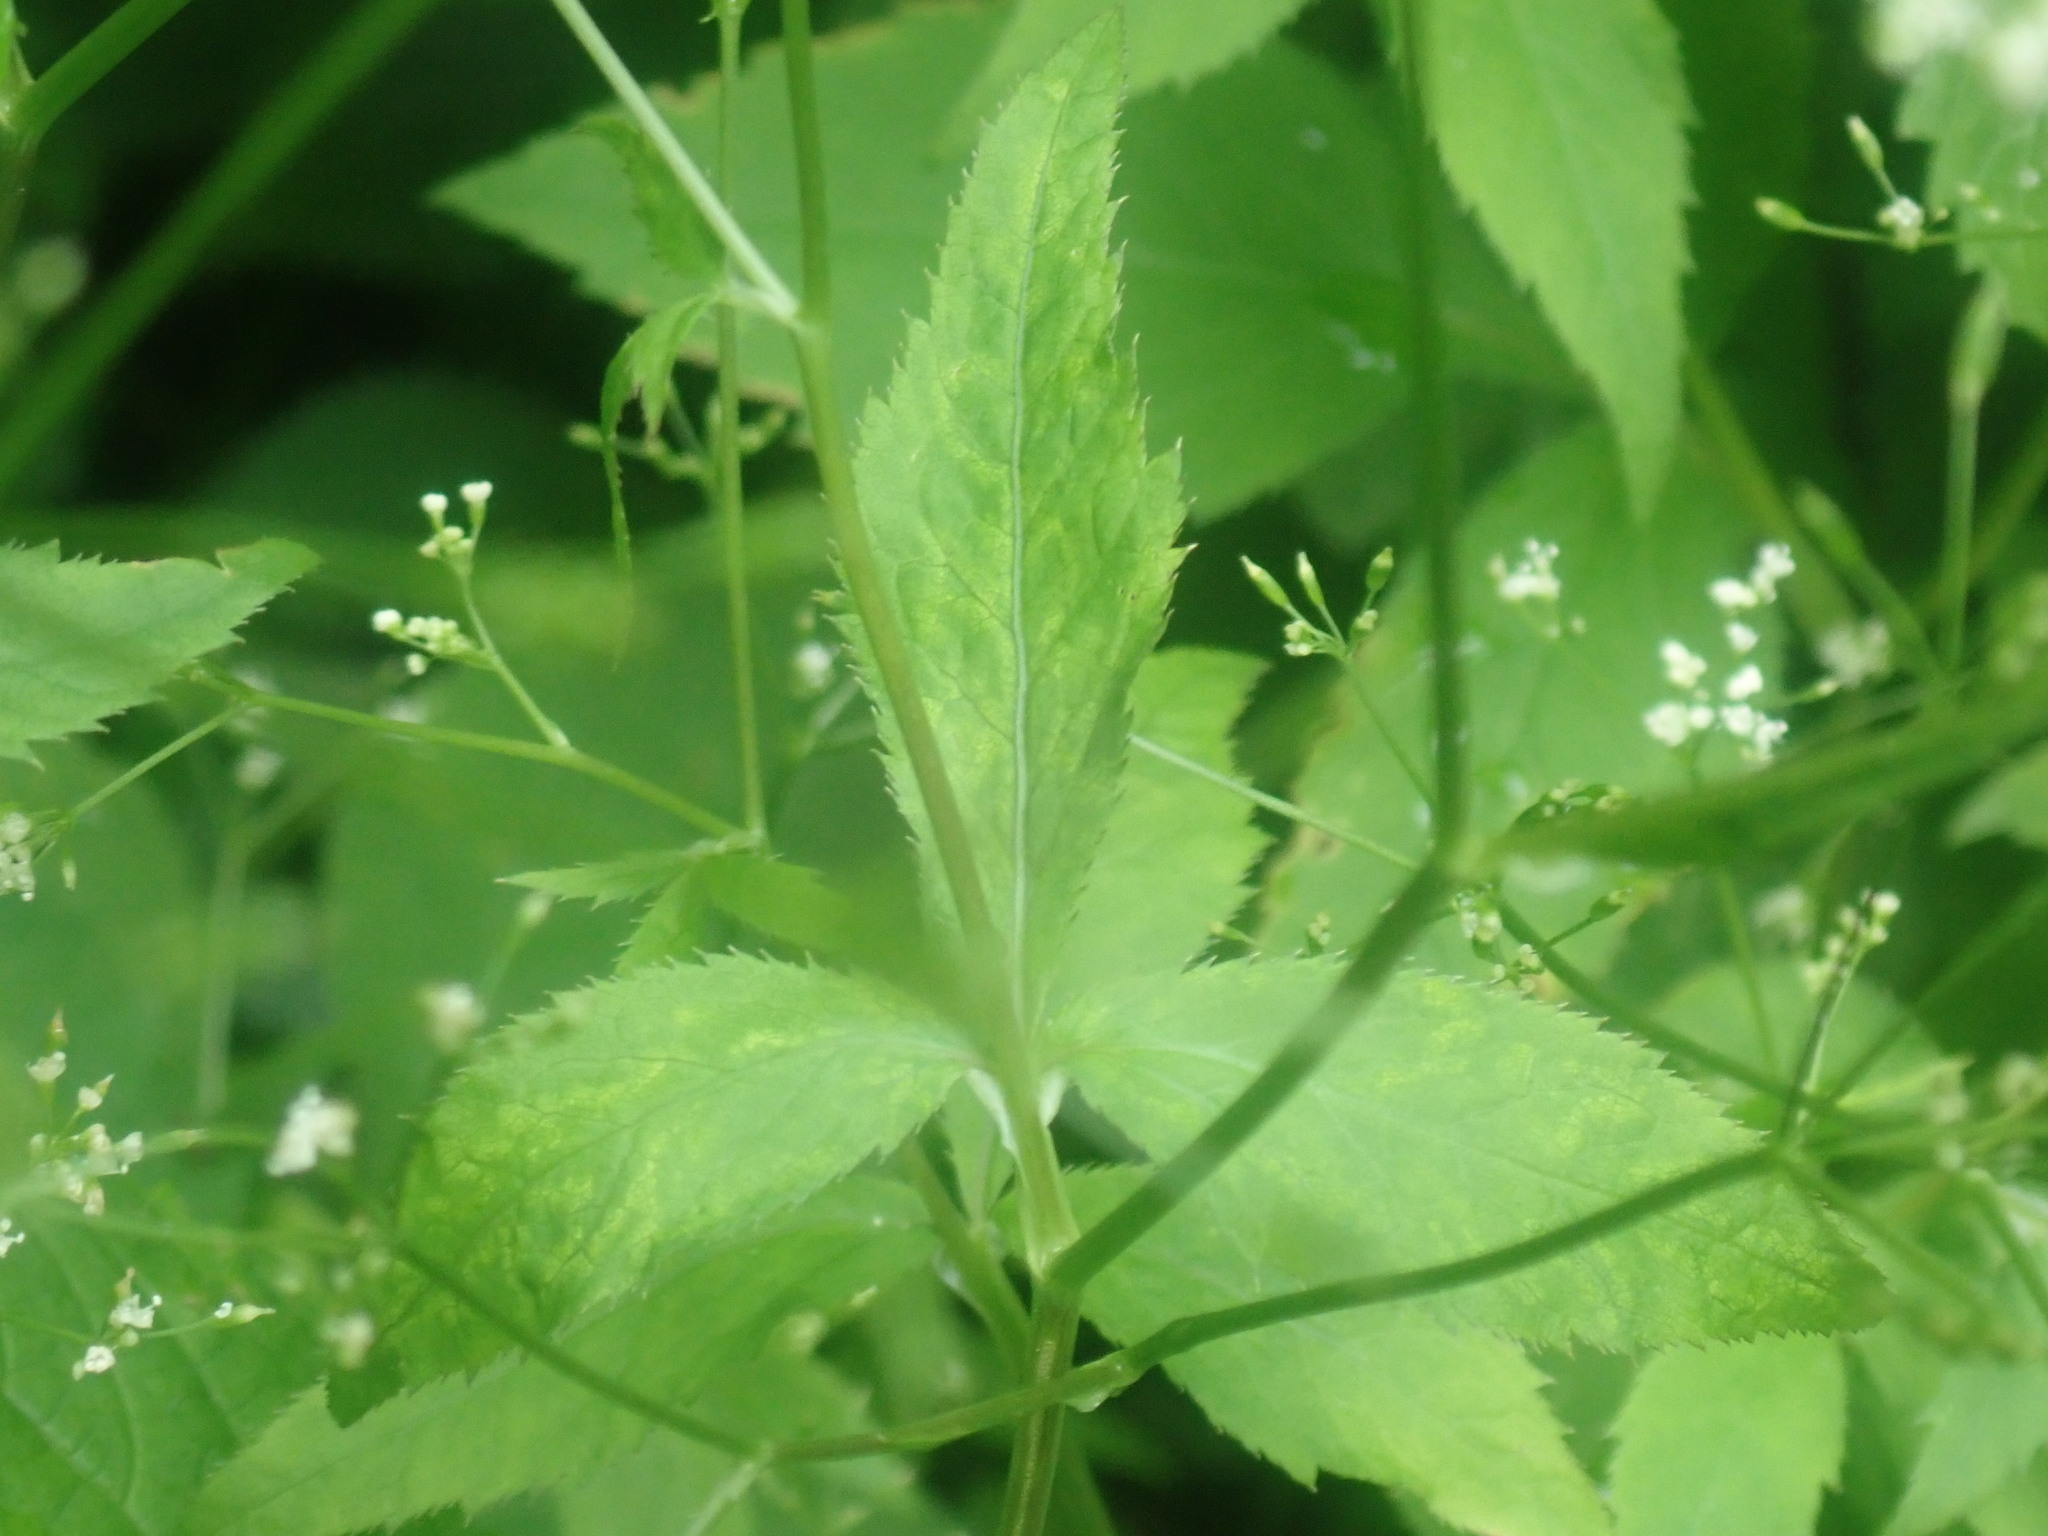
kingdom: Plantae
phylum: Tracheophyta
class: Magnoliopsida
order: Apiales
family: Apiaceae
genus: Cryptotaenia
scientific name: Cryptotaenia canadensis
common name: Honewort
